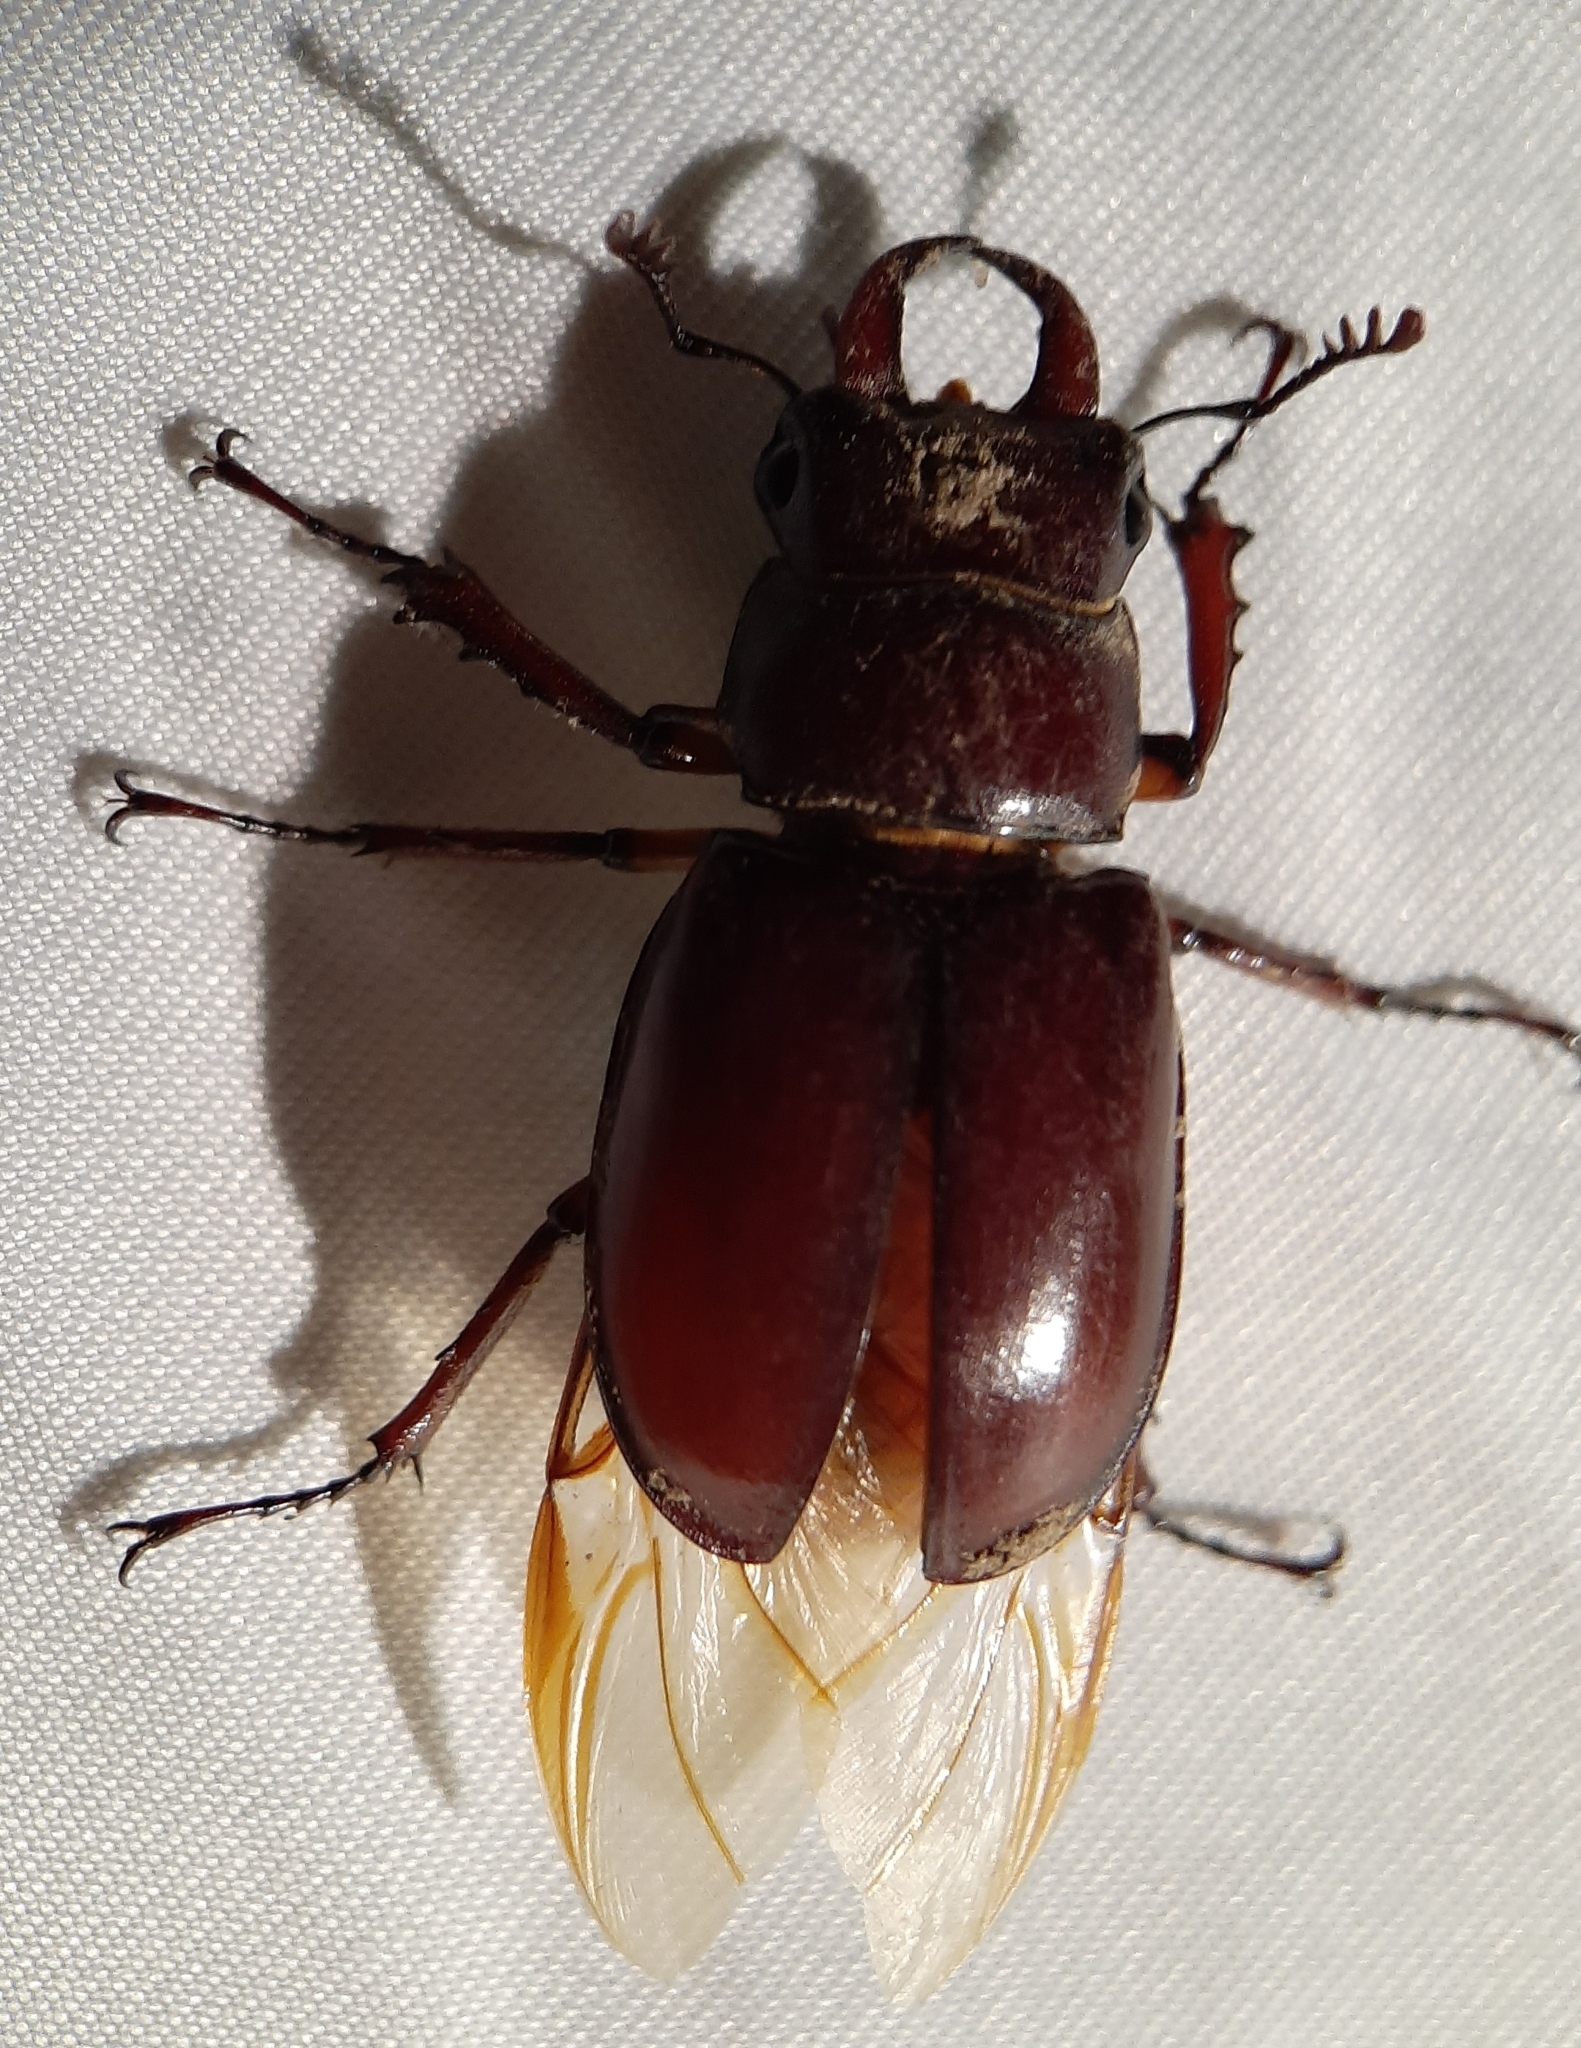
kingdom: Animalia
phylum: Arthropoda
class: Insecta
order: Coleoptera
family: Lucanidae
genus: Lucanus
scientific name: Lucanus capreolus
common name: Stag beetle
